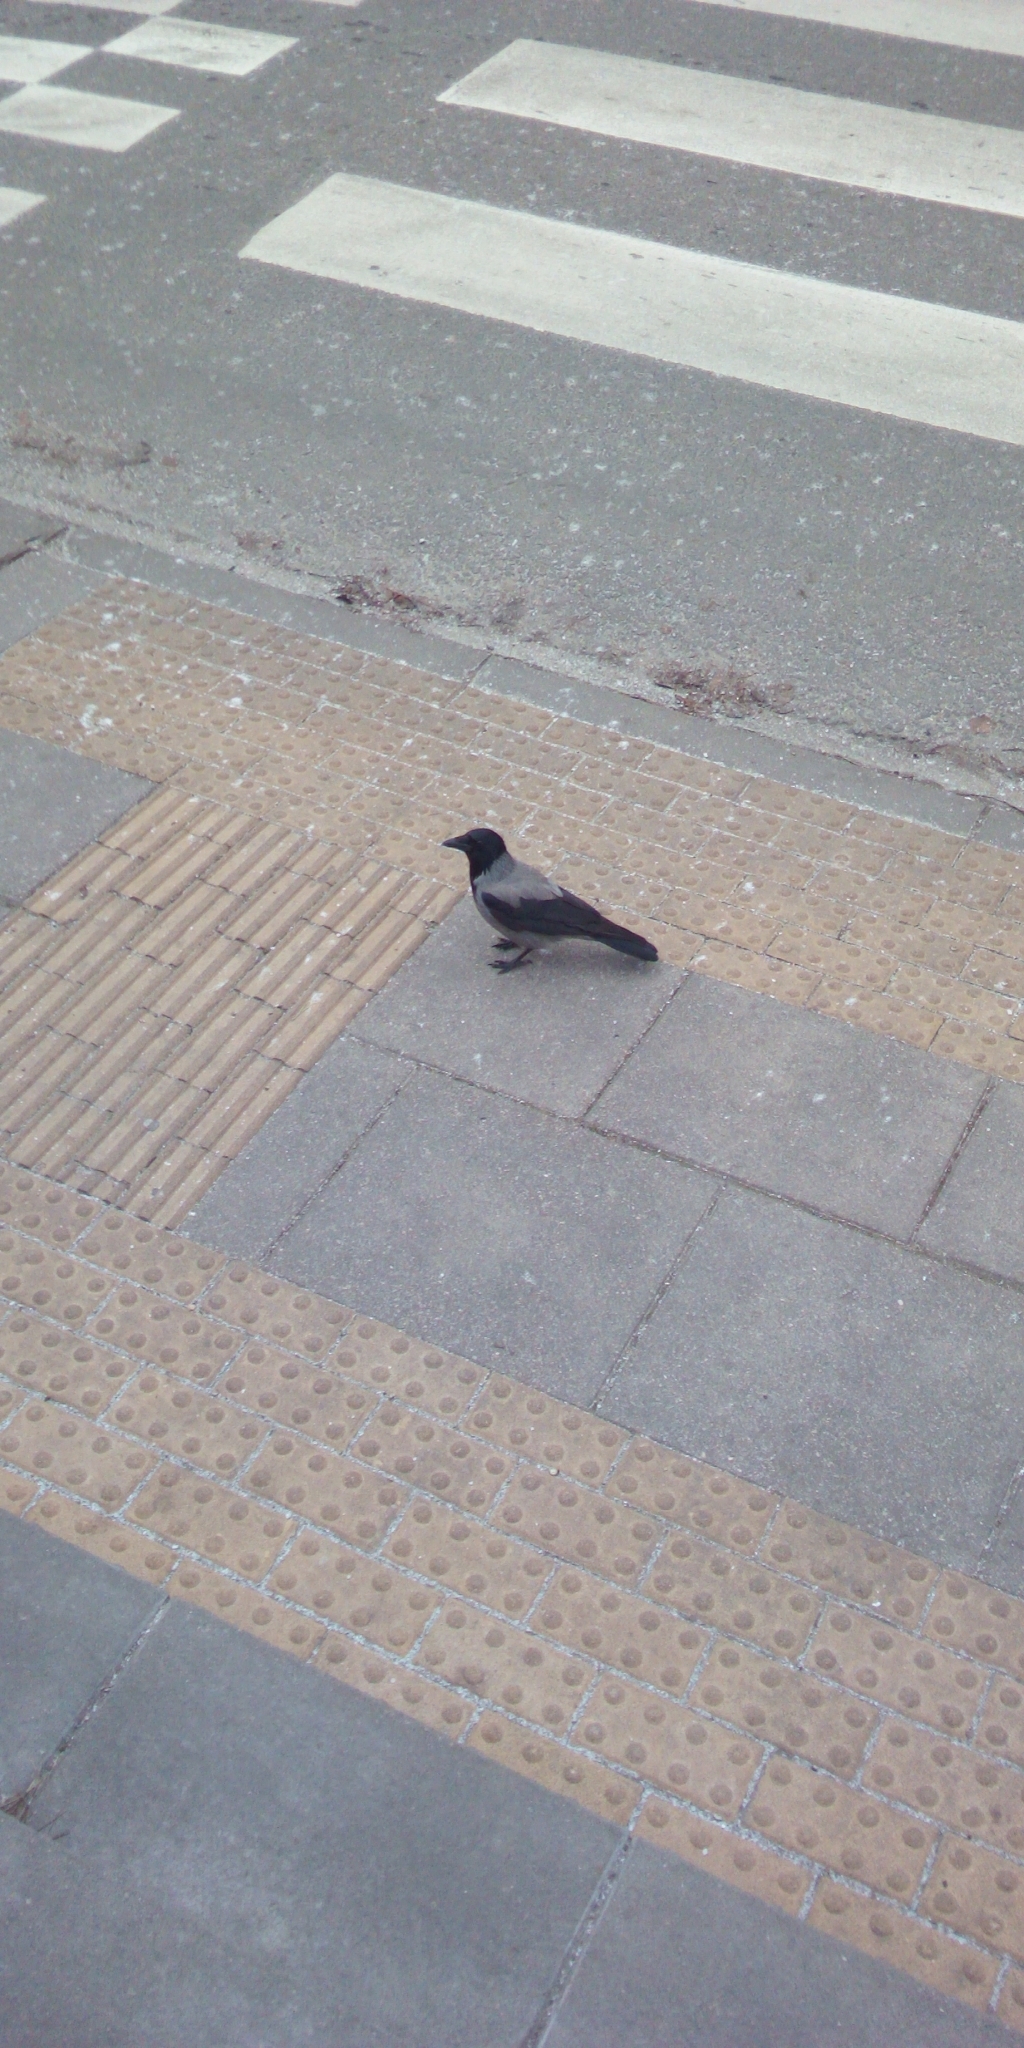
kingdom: Animalia
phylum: Chordata
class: Aves
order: Passeriformes
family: Corvidae
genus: Corvus
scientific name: Corvus cornix
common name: Hooded crow
